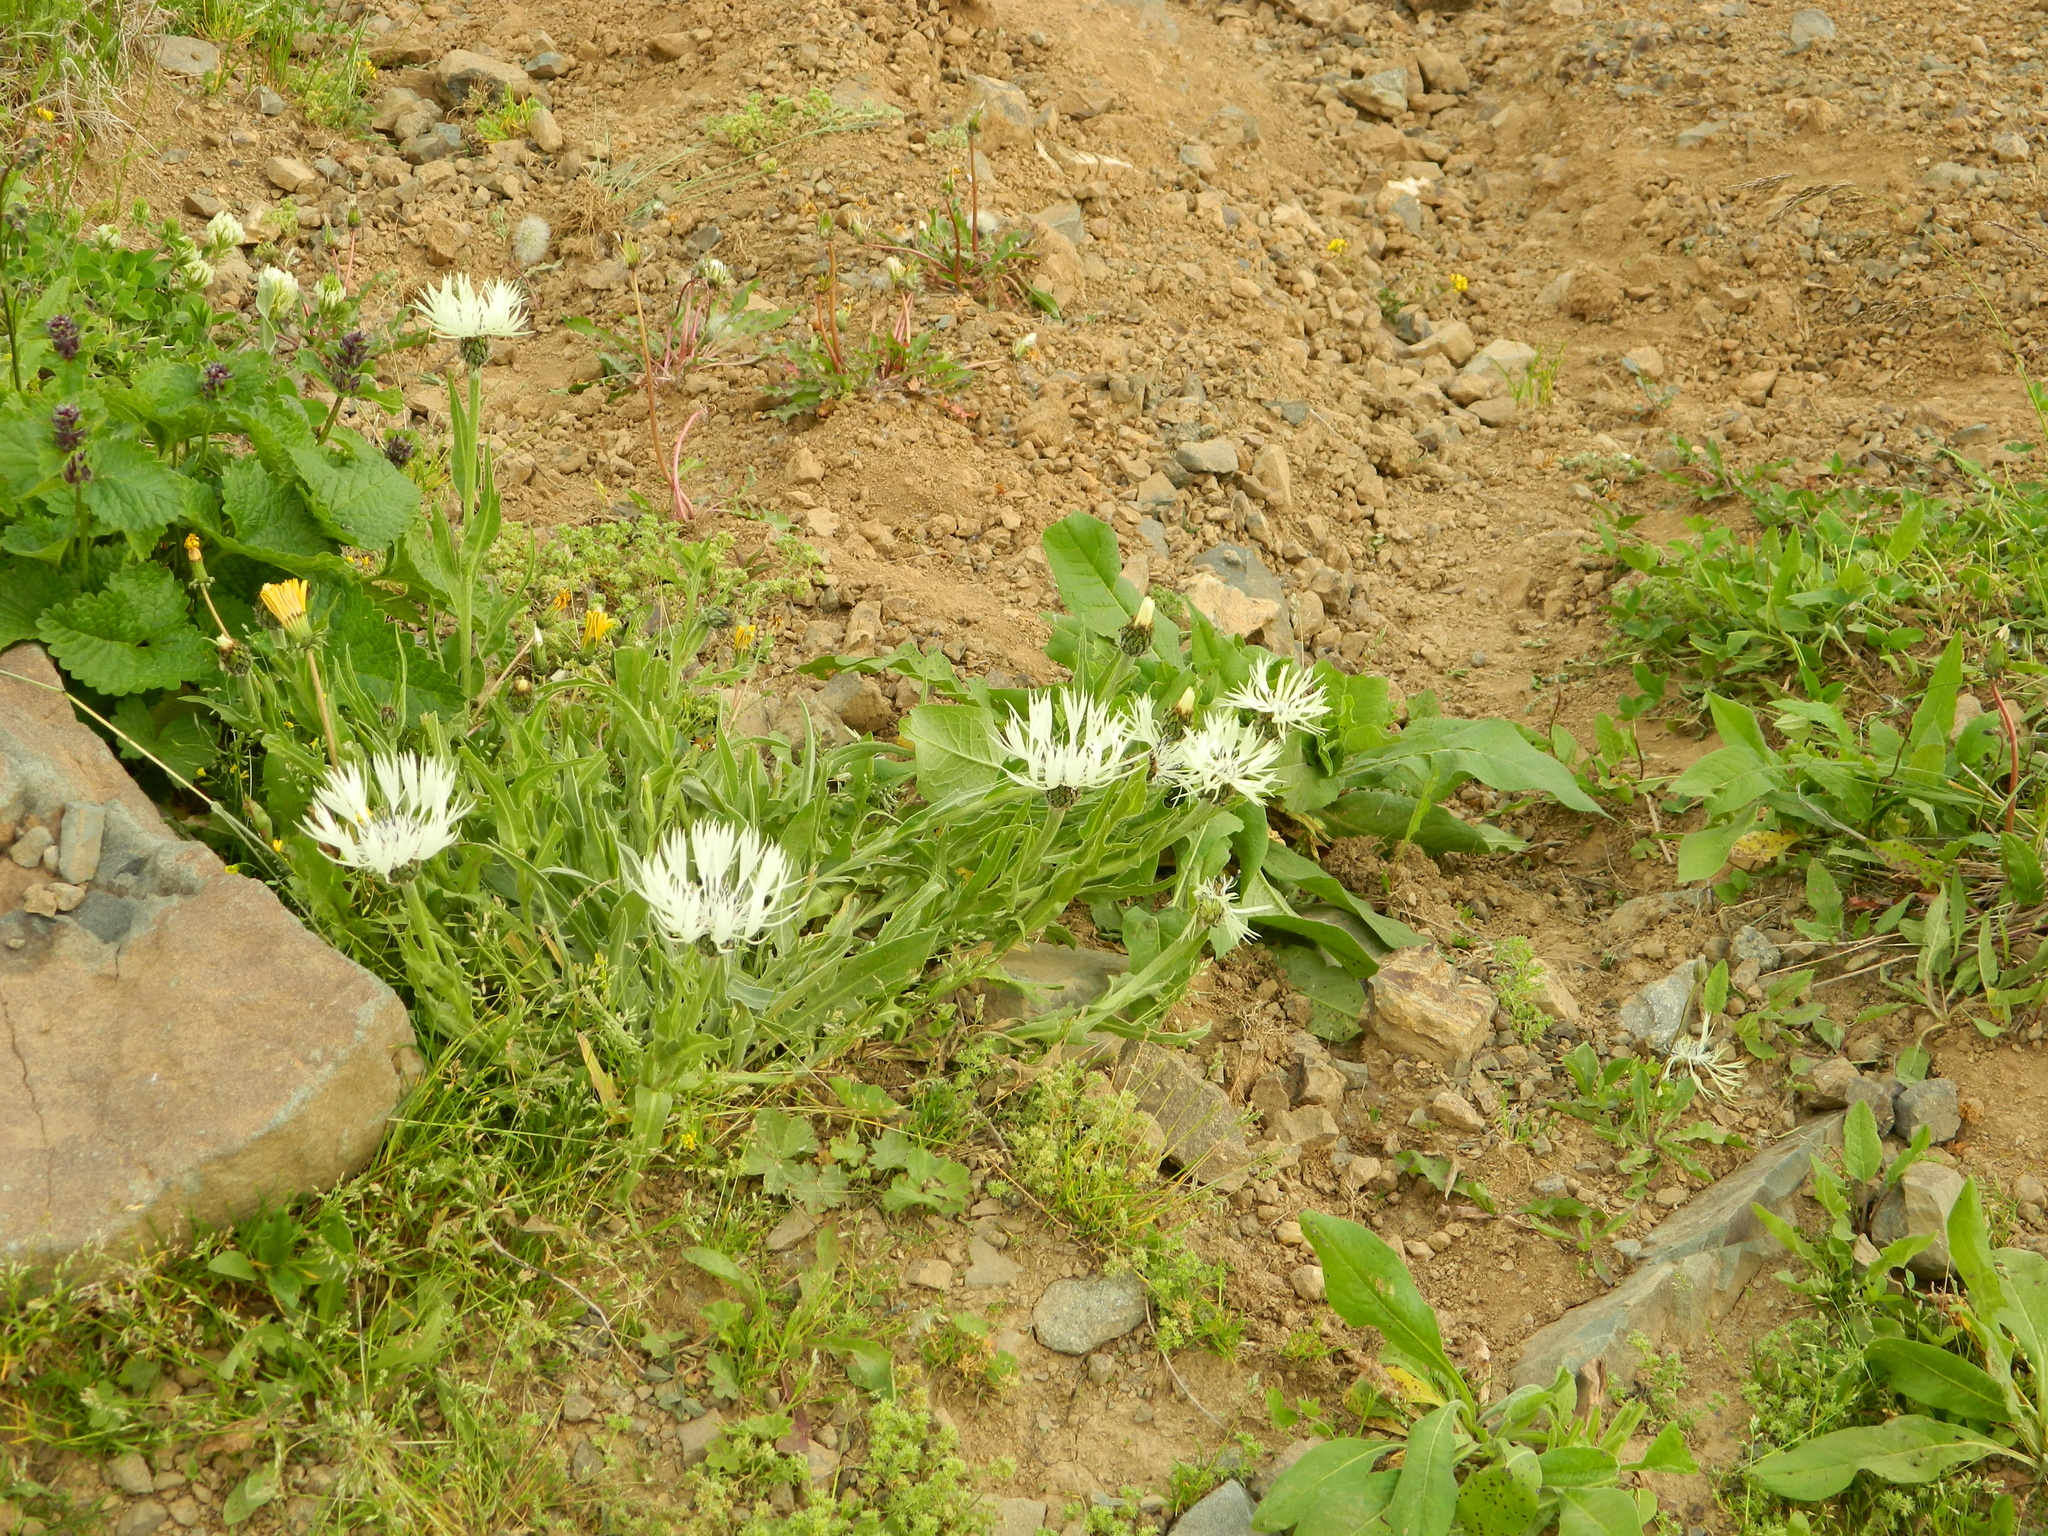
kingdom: Plantae
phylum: Tracheophyta
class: Magnoliopsida
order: Asterales
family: Asteraceae
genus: Centaurea
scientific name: Centaurea cheiranthifolia
